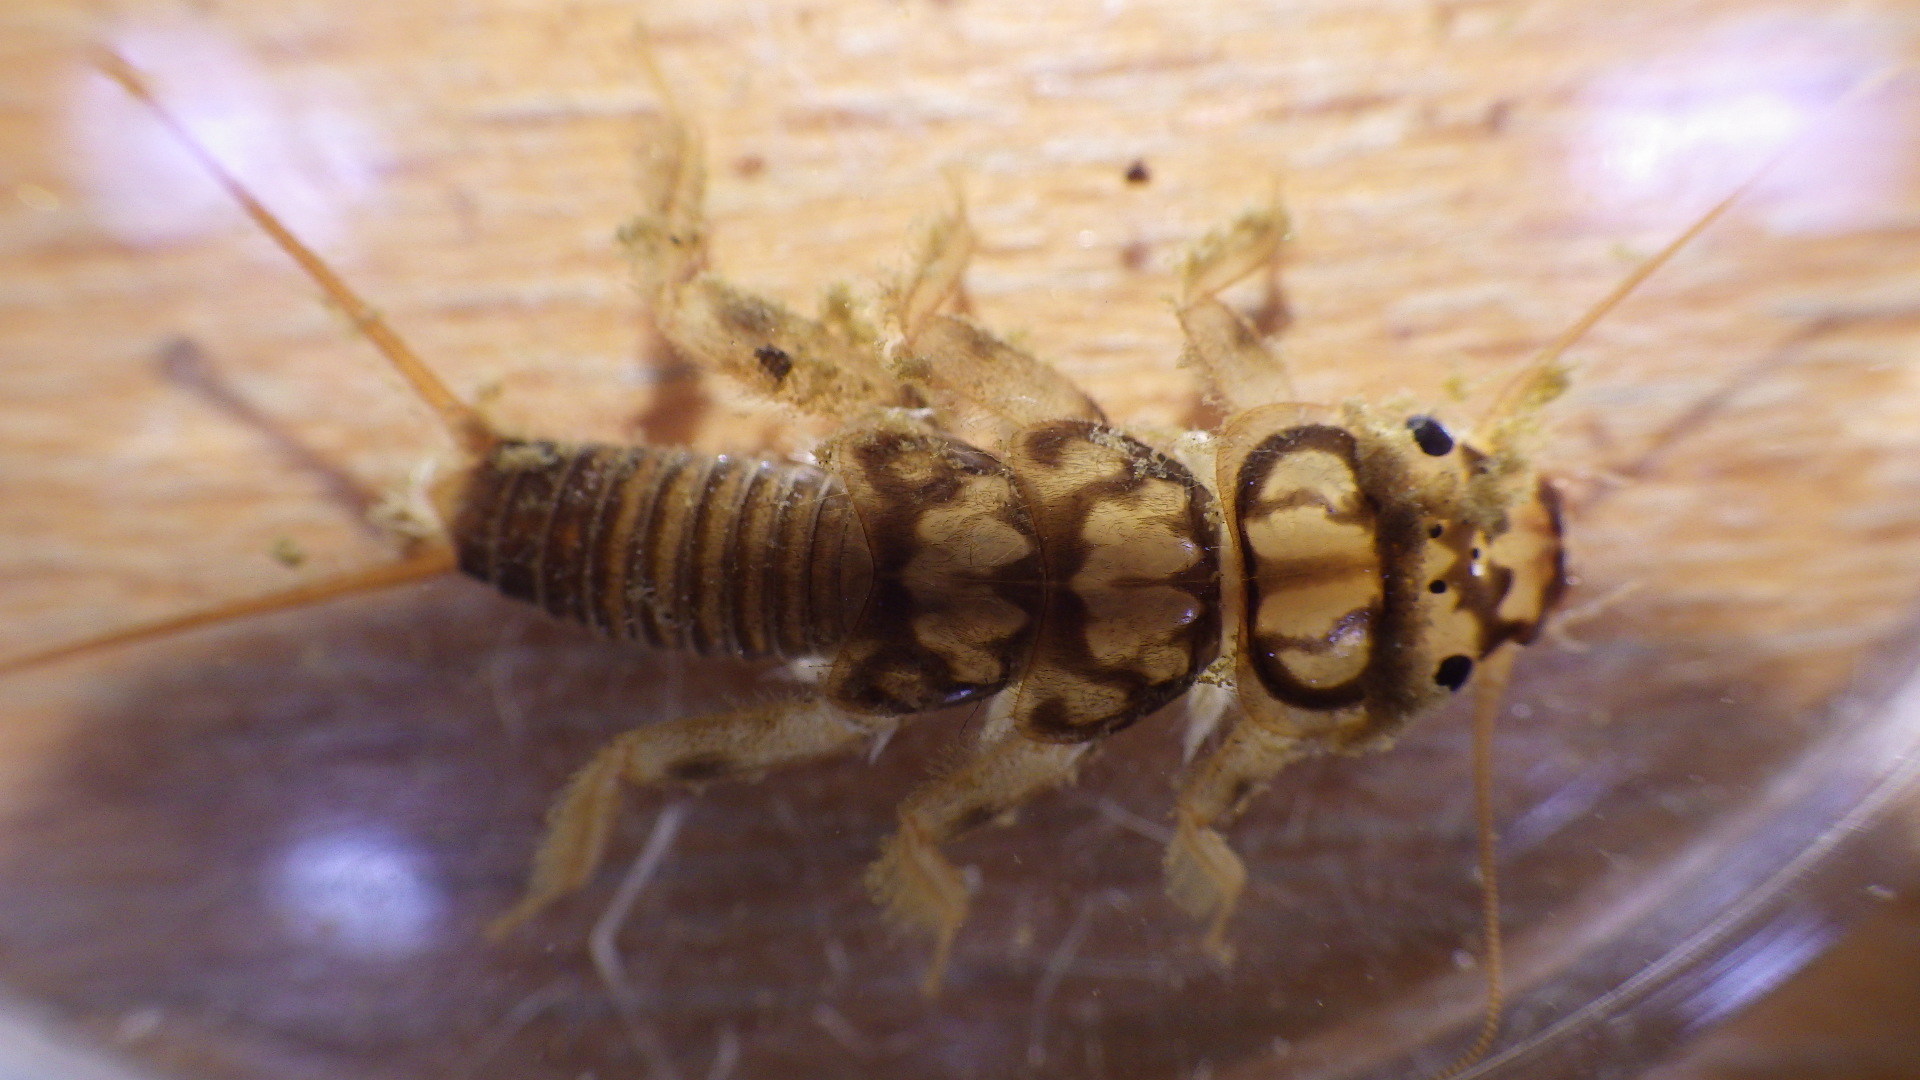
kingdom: Animalia
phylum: Arthropoda
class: Insecta
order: Plecoptera
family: Perlidae
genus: Eccoptura
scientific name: Eccoptura xanthenes
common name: Yellow stone
